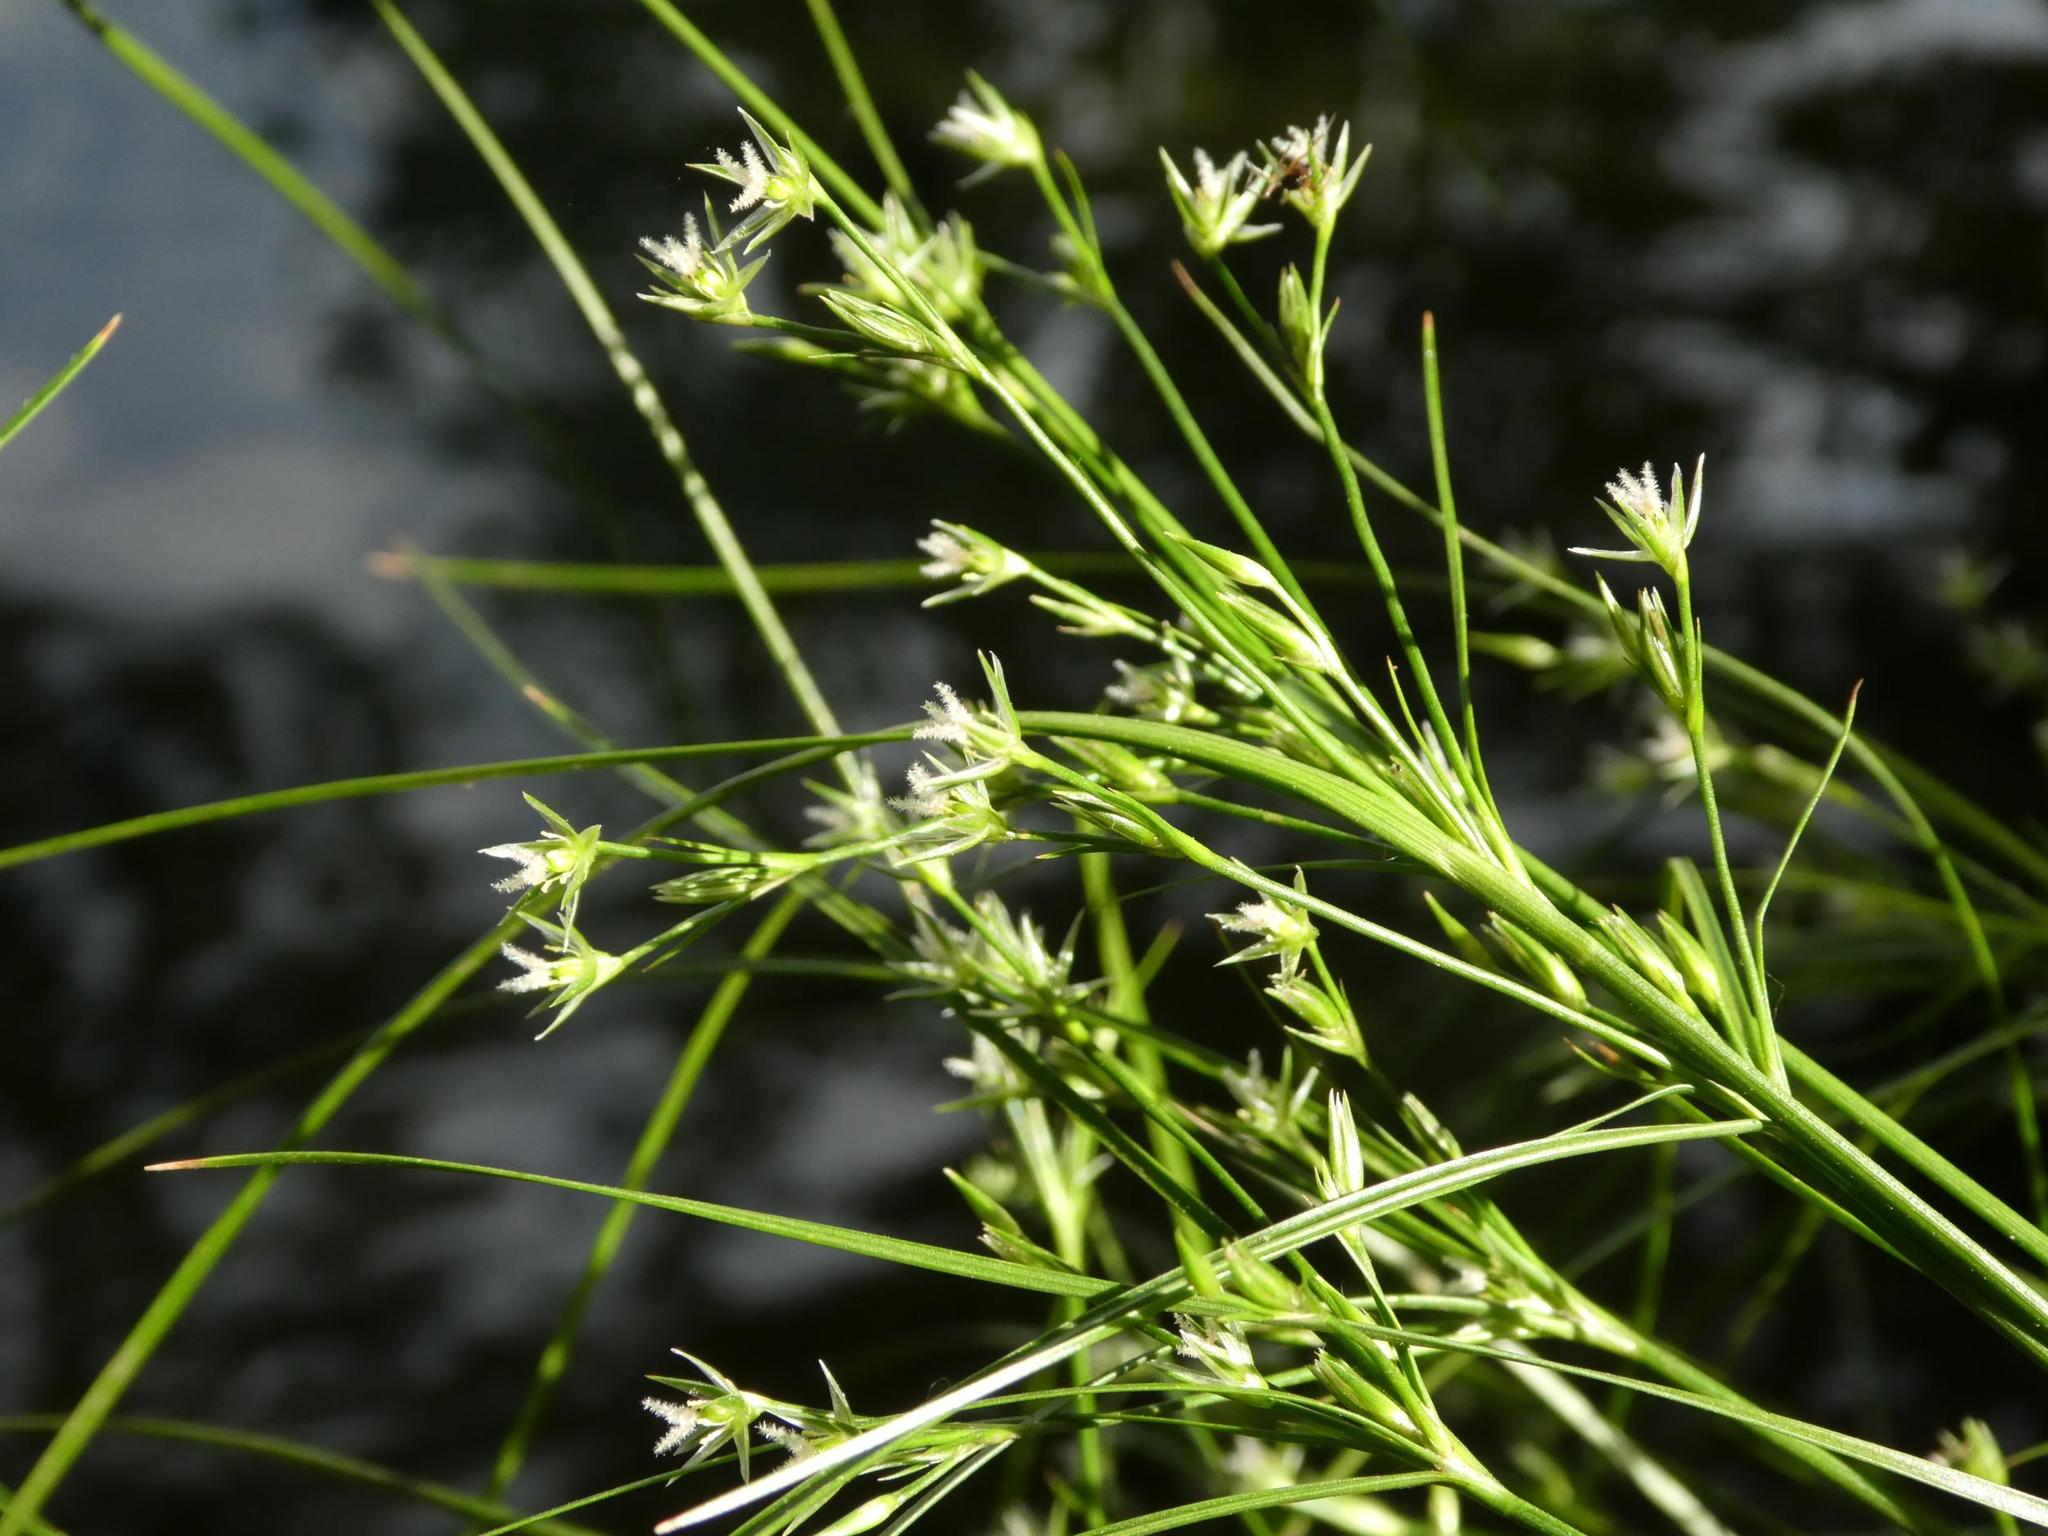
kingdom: Plantae
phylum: Tracheophyta
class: Liliopsida
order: Poales
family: Cyperaceae
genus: Rhynchospora
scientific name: Rhynchospora alba
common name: White beak-sedge
